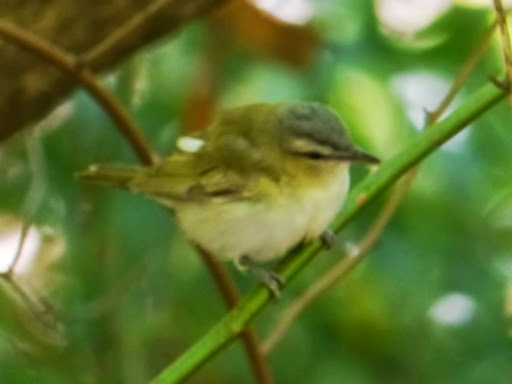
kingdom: Animalia
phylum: Chordata
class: Aves
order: Passeriformes
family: Vireonidae
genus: Vireo
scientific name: Vireo olivaceus
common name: Red-eyed vireo
